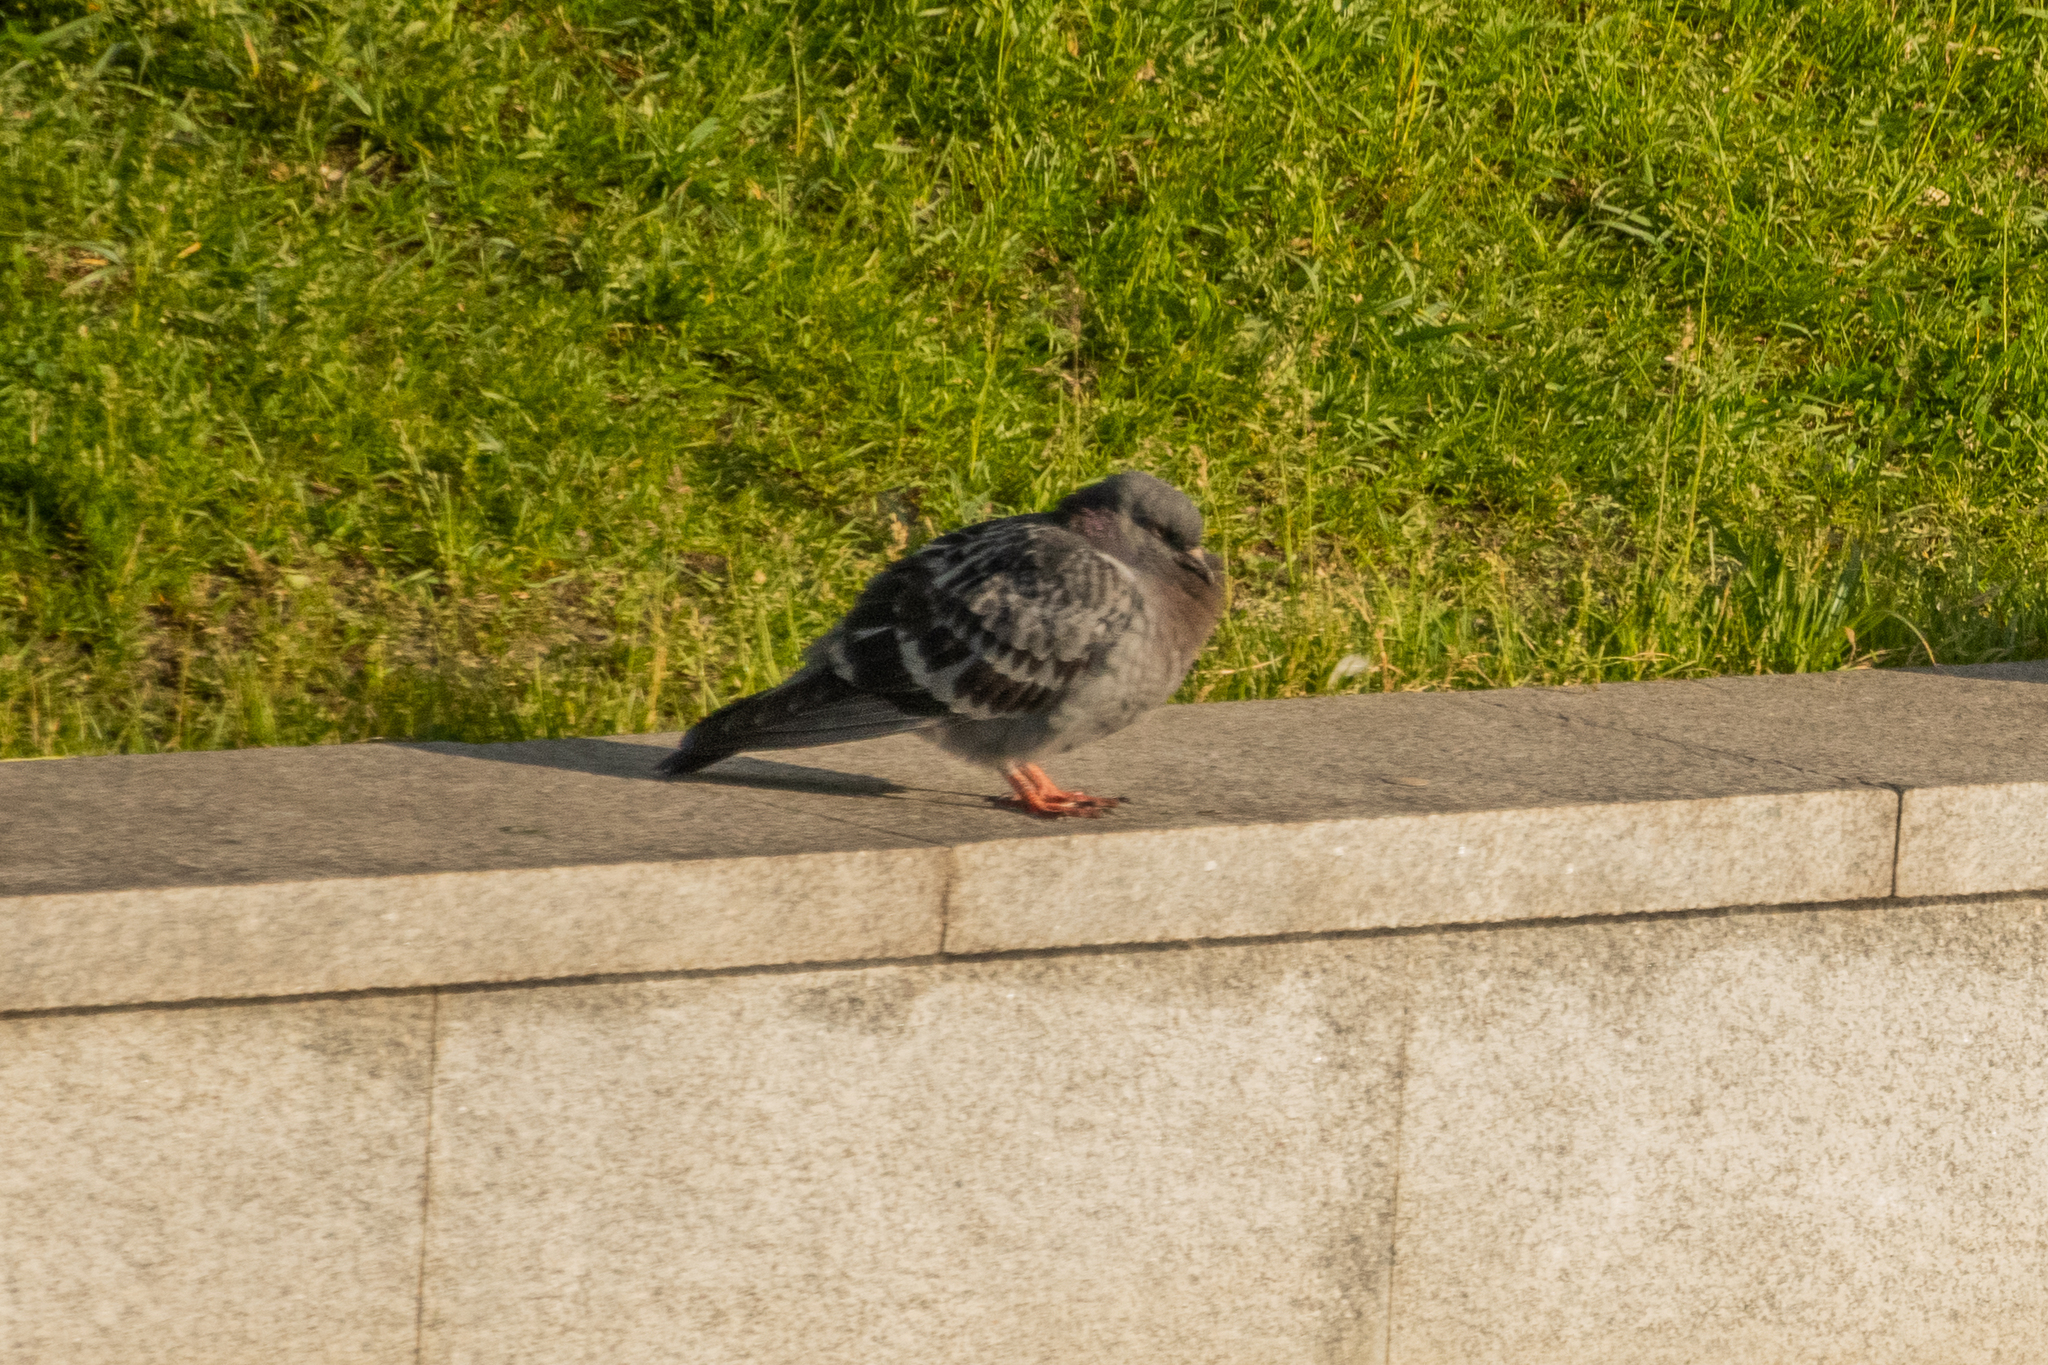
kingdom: Animalia
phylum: Chordata
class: Aves
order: Columbiformes
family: Columbidae
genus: Columba
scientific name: Columba livia
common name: Rock pigeon
